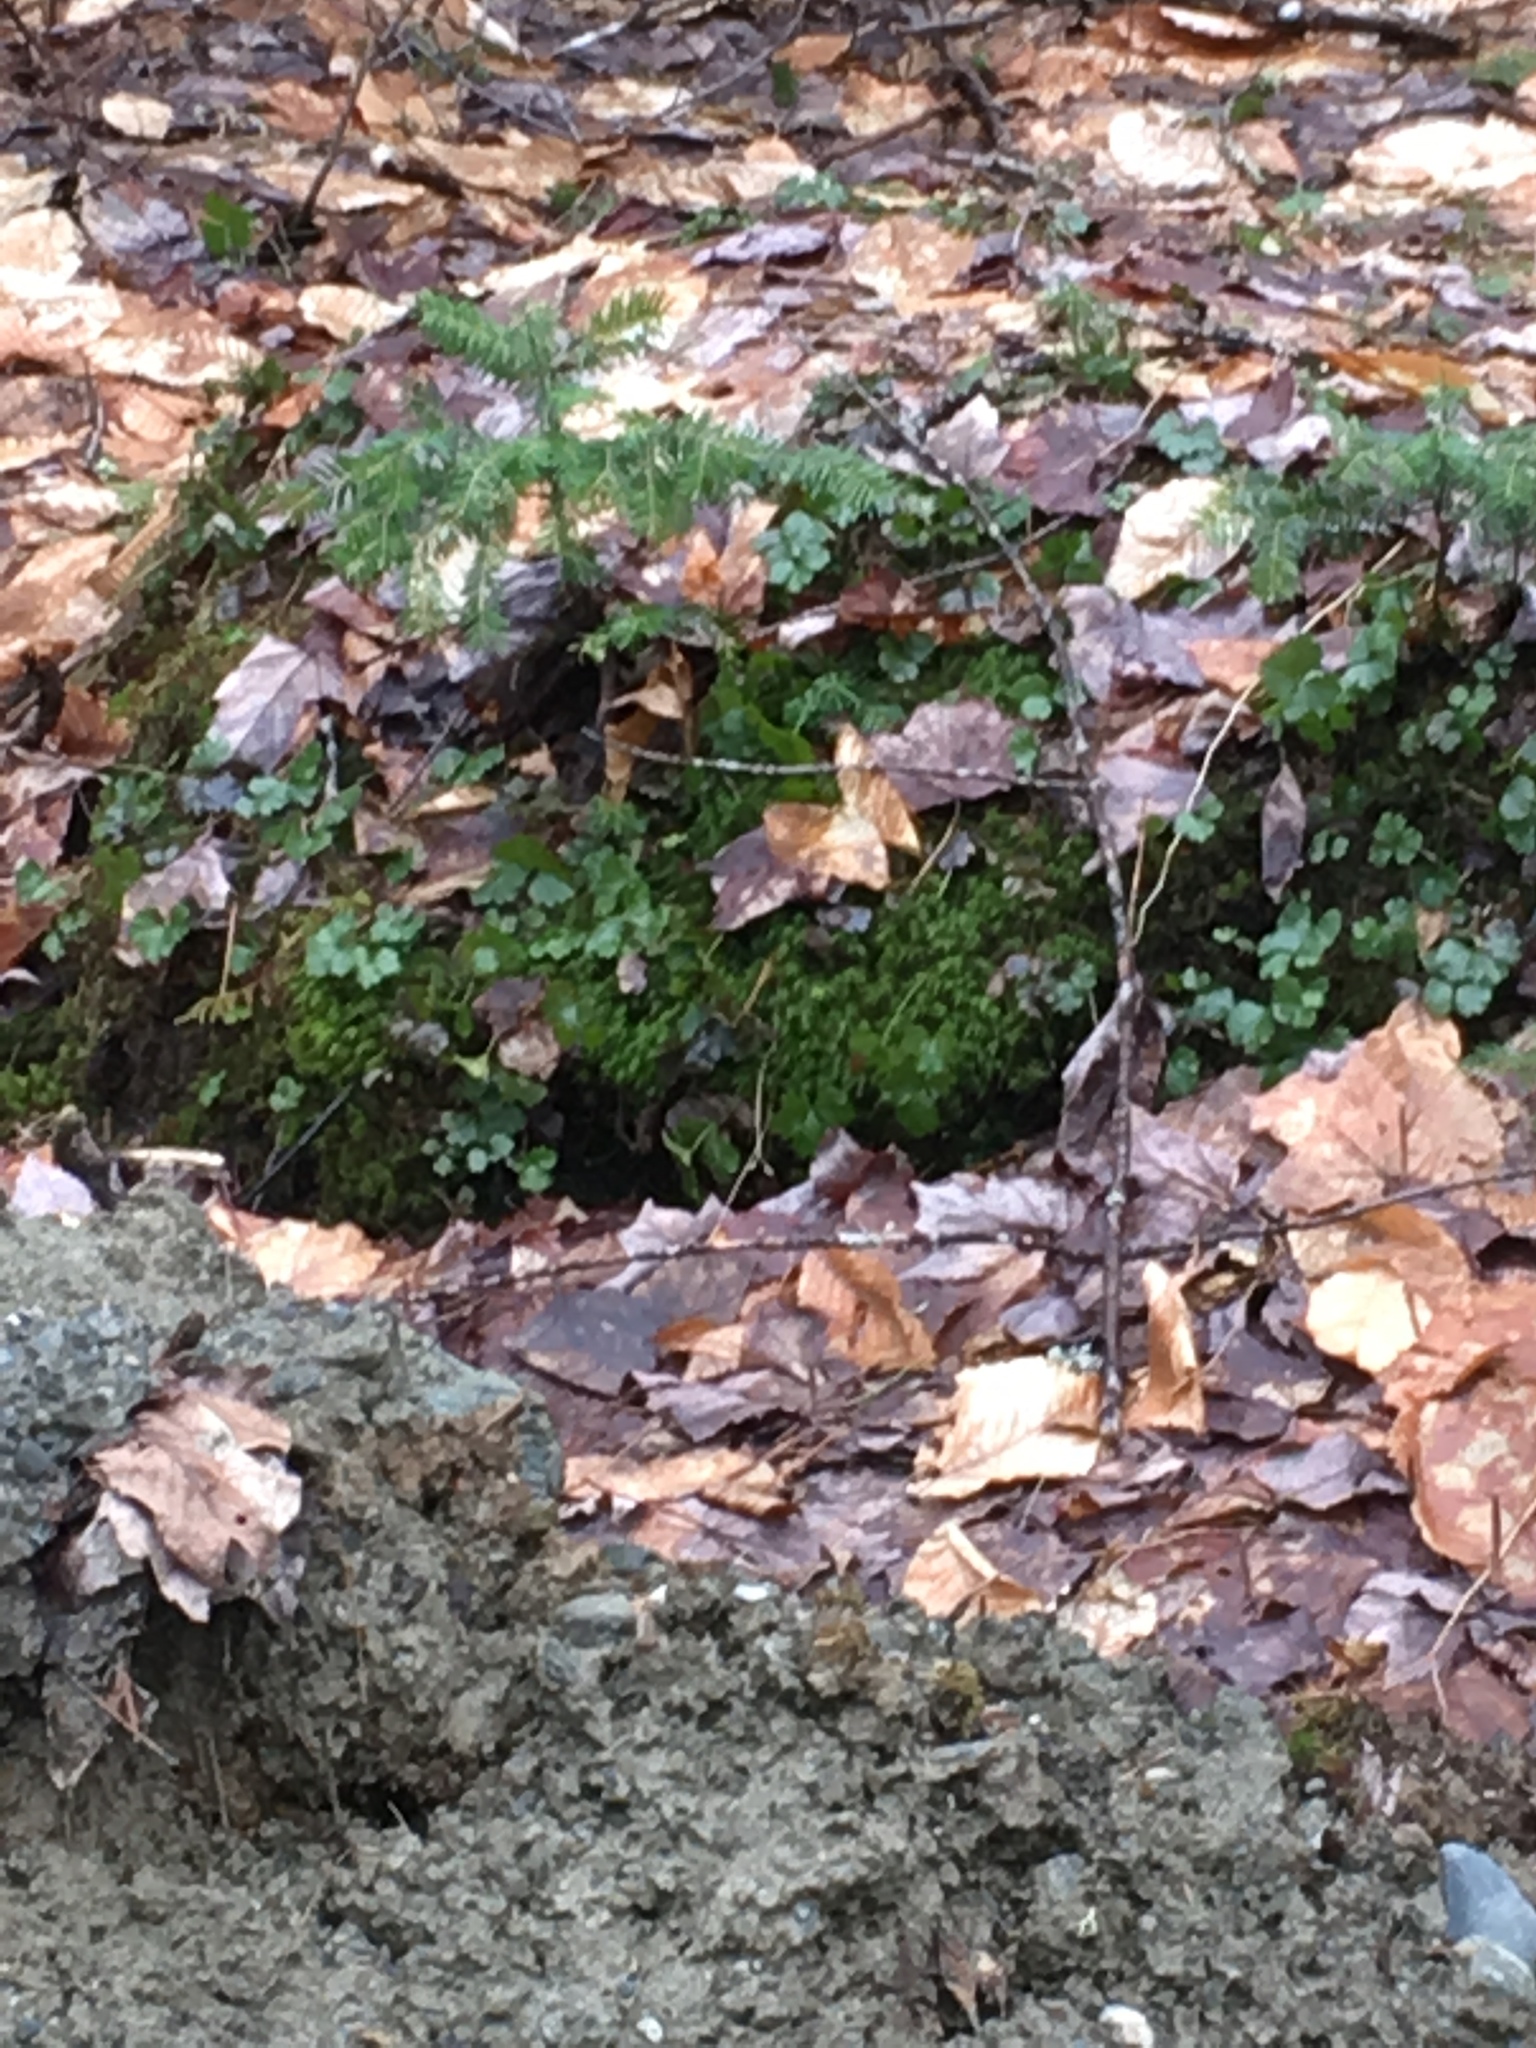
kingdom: Plantae
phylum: Tracheophyta
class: Magnoliopsida
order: Ranunculales
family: Ranunculaceae
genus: Coptis
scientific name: Coptis trifolia
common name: Canker-root
